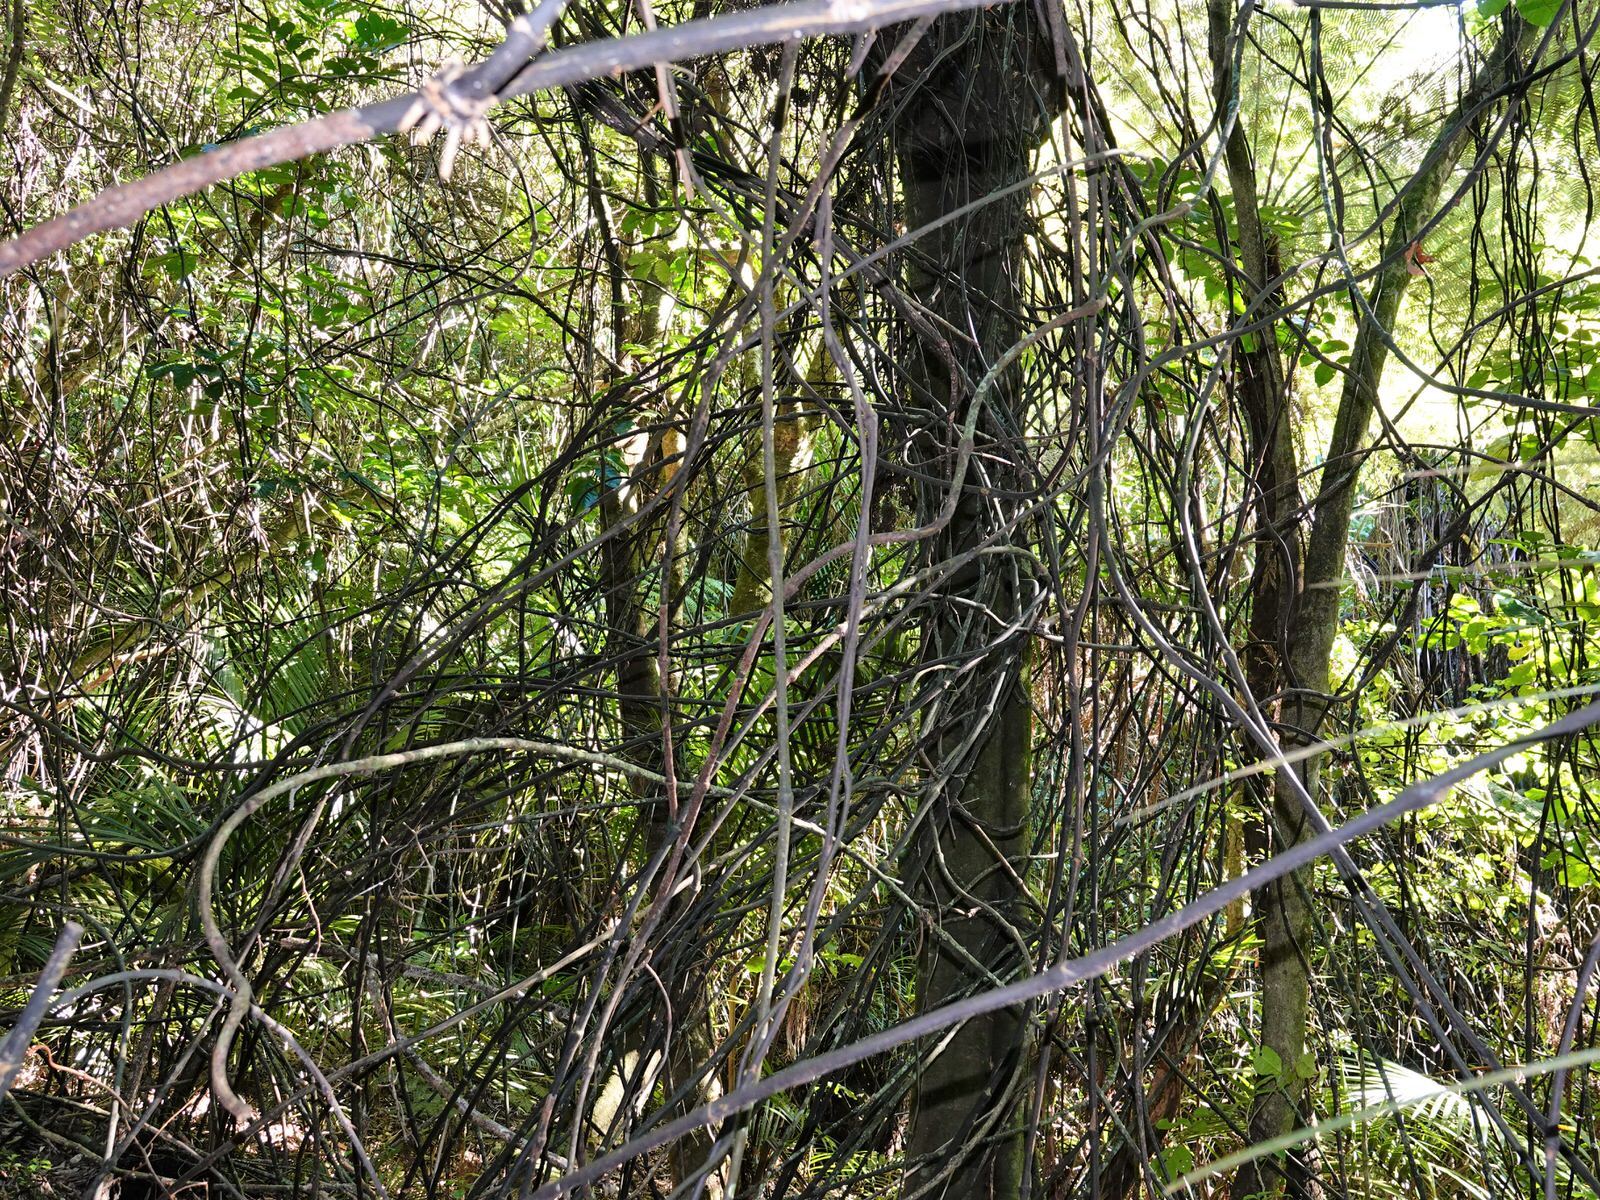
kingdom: Plantae
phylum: Tracheophyta
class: Liliopsida
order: Liliales
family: Ripogonaceae
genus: Ripogonum
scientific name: Ripogonum scandens
